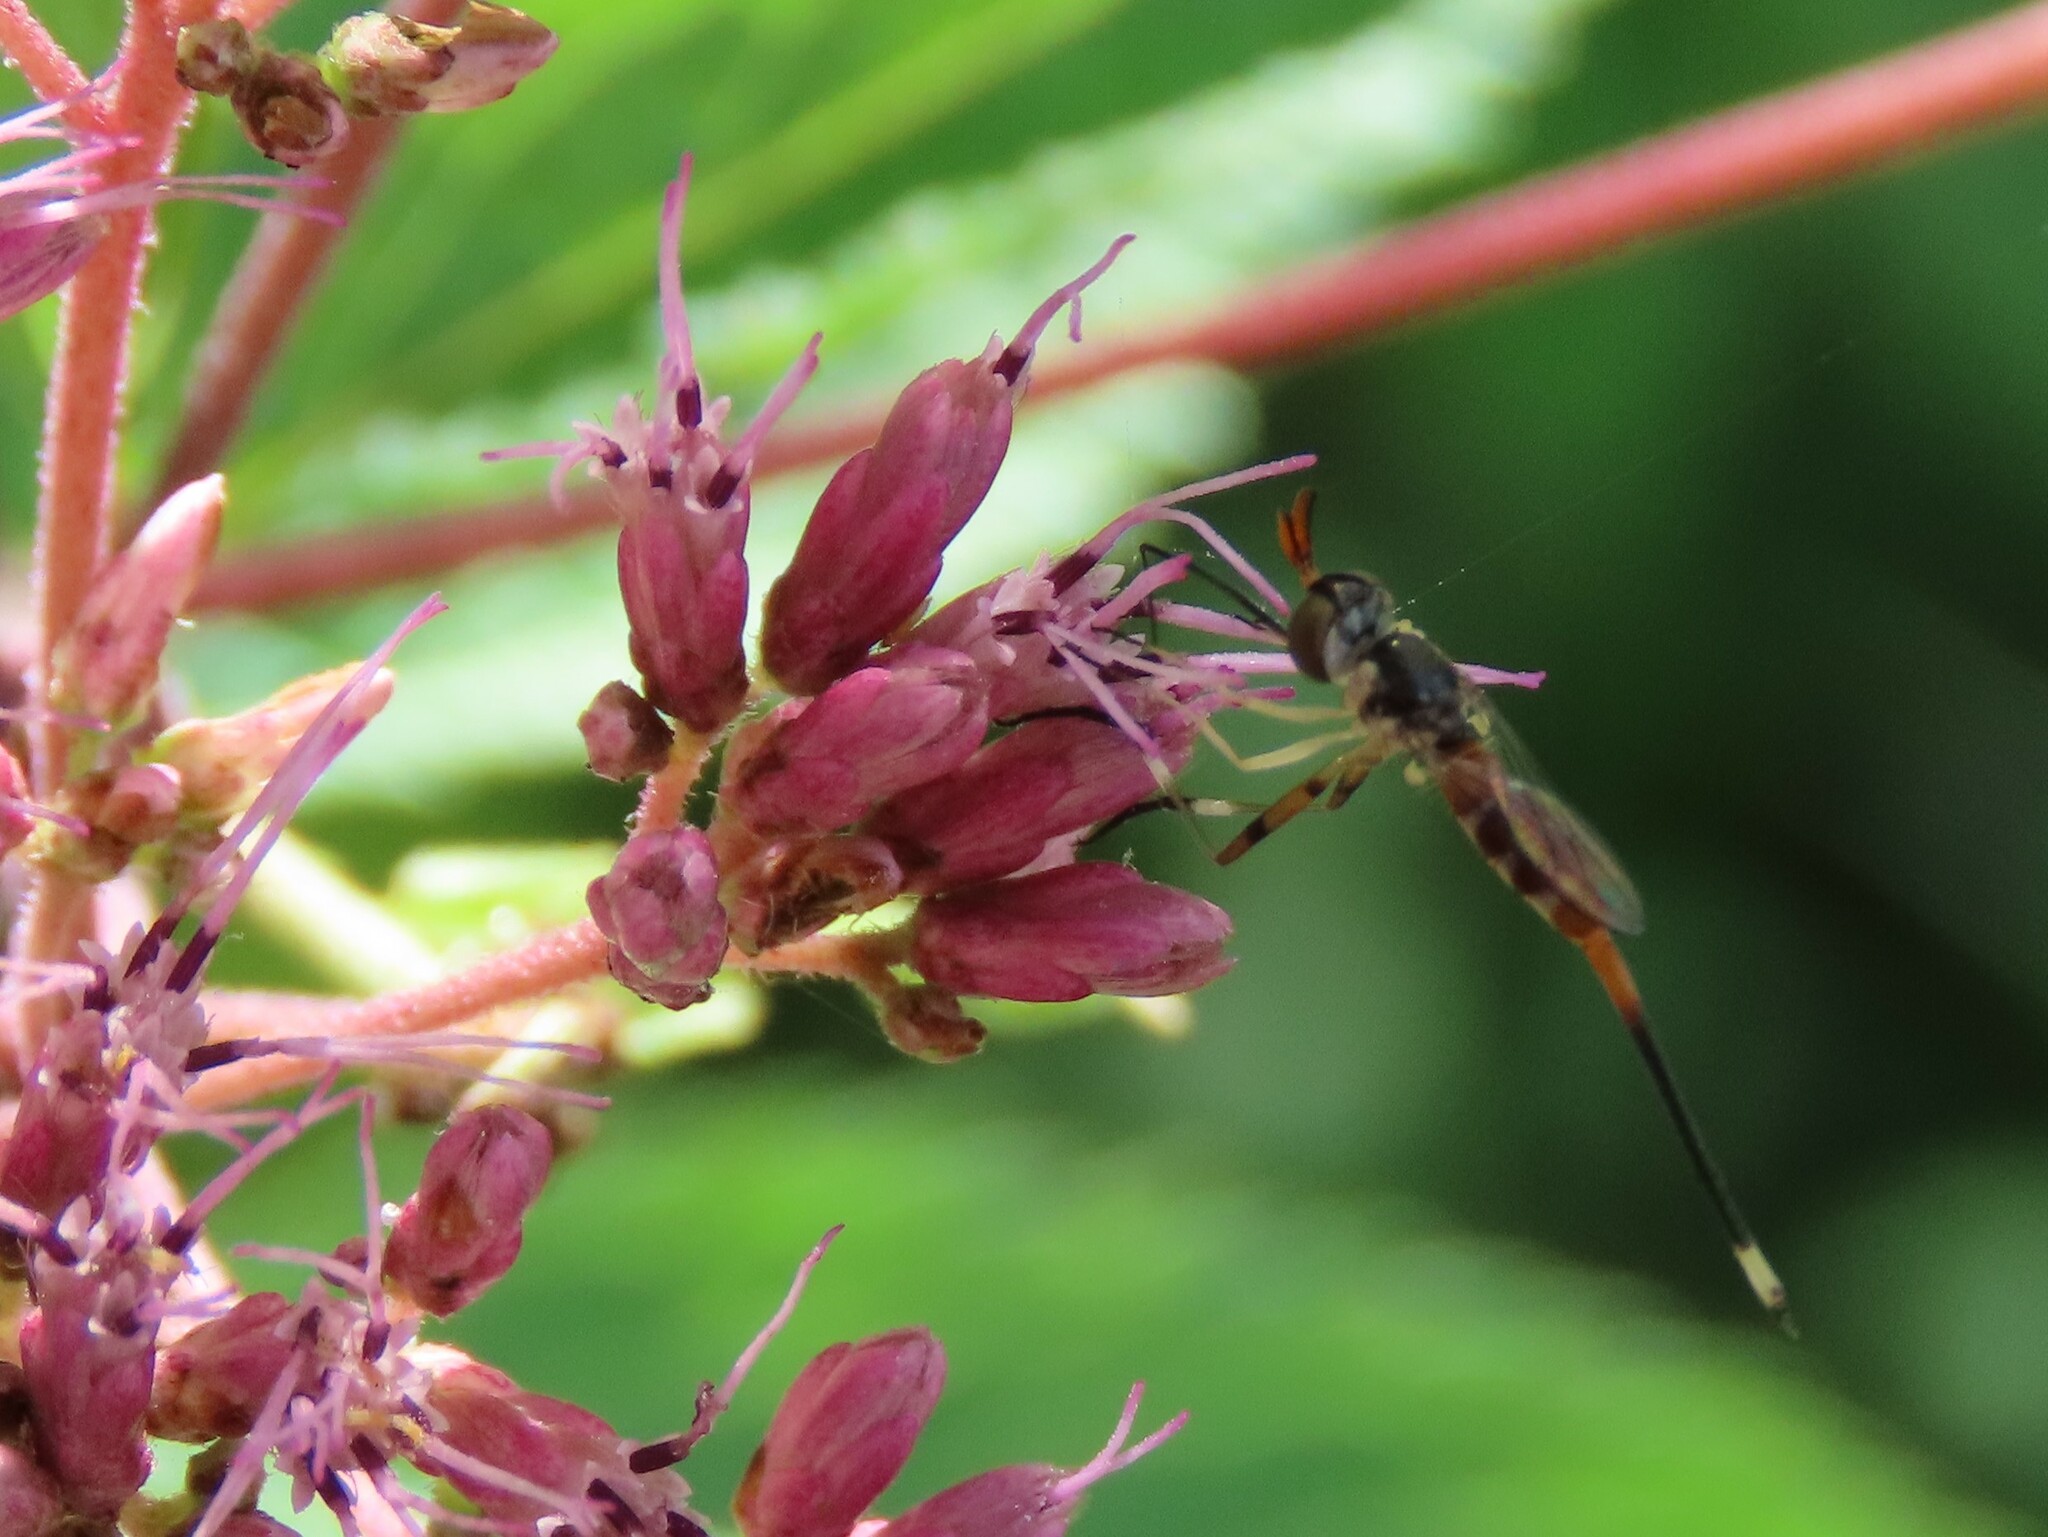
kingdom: Animalia
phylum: Arthropoda
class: Insecta
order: Diptera
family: Conopidae
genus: Stylogaster
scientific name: Stylogaster neglecta
